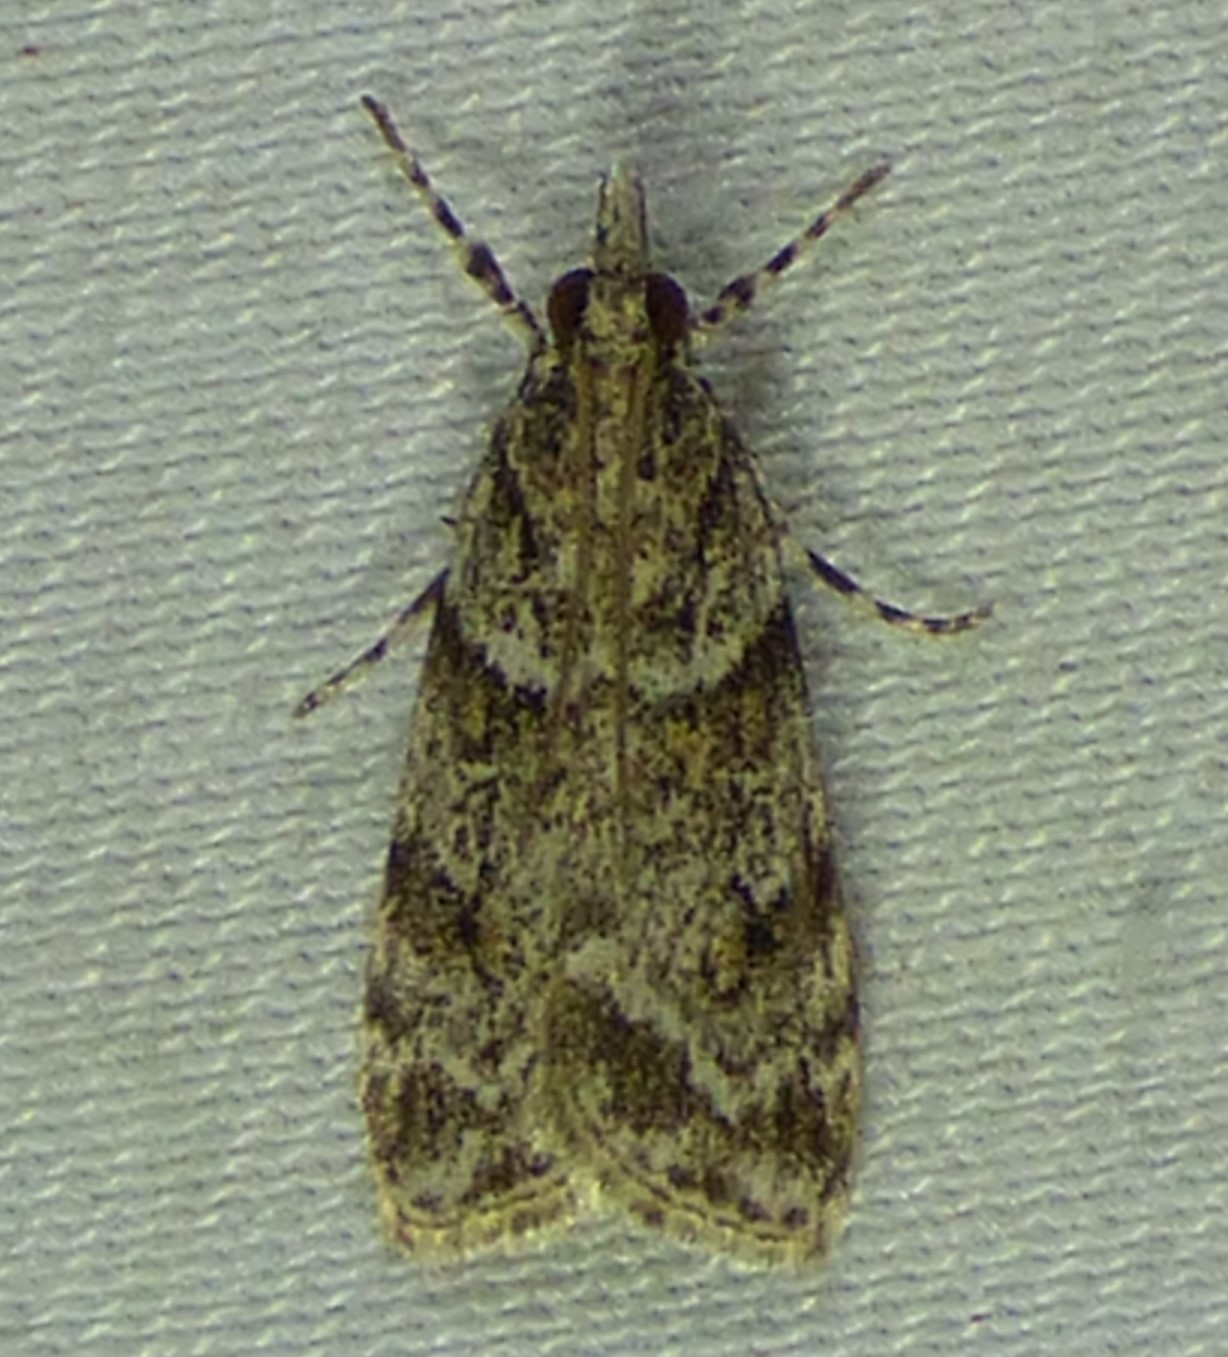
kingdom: Animalia
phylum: Arthropoda
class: Insecta
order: Lepidoptera
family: Crambidae
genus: Scoparia
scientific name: Scoparia biplagialis
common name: Double-striped scoparia moth
